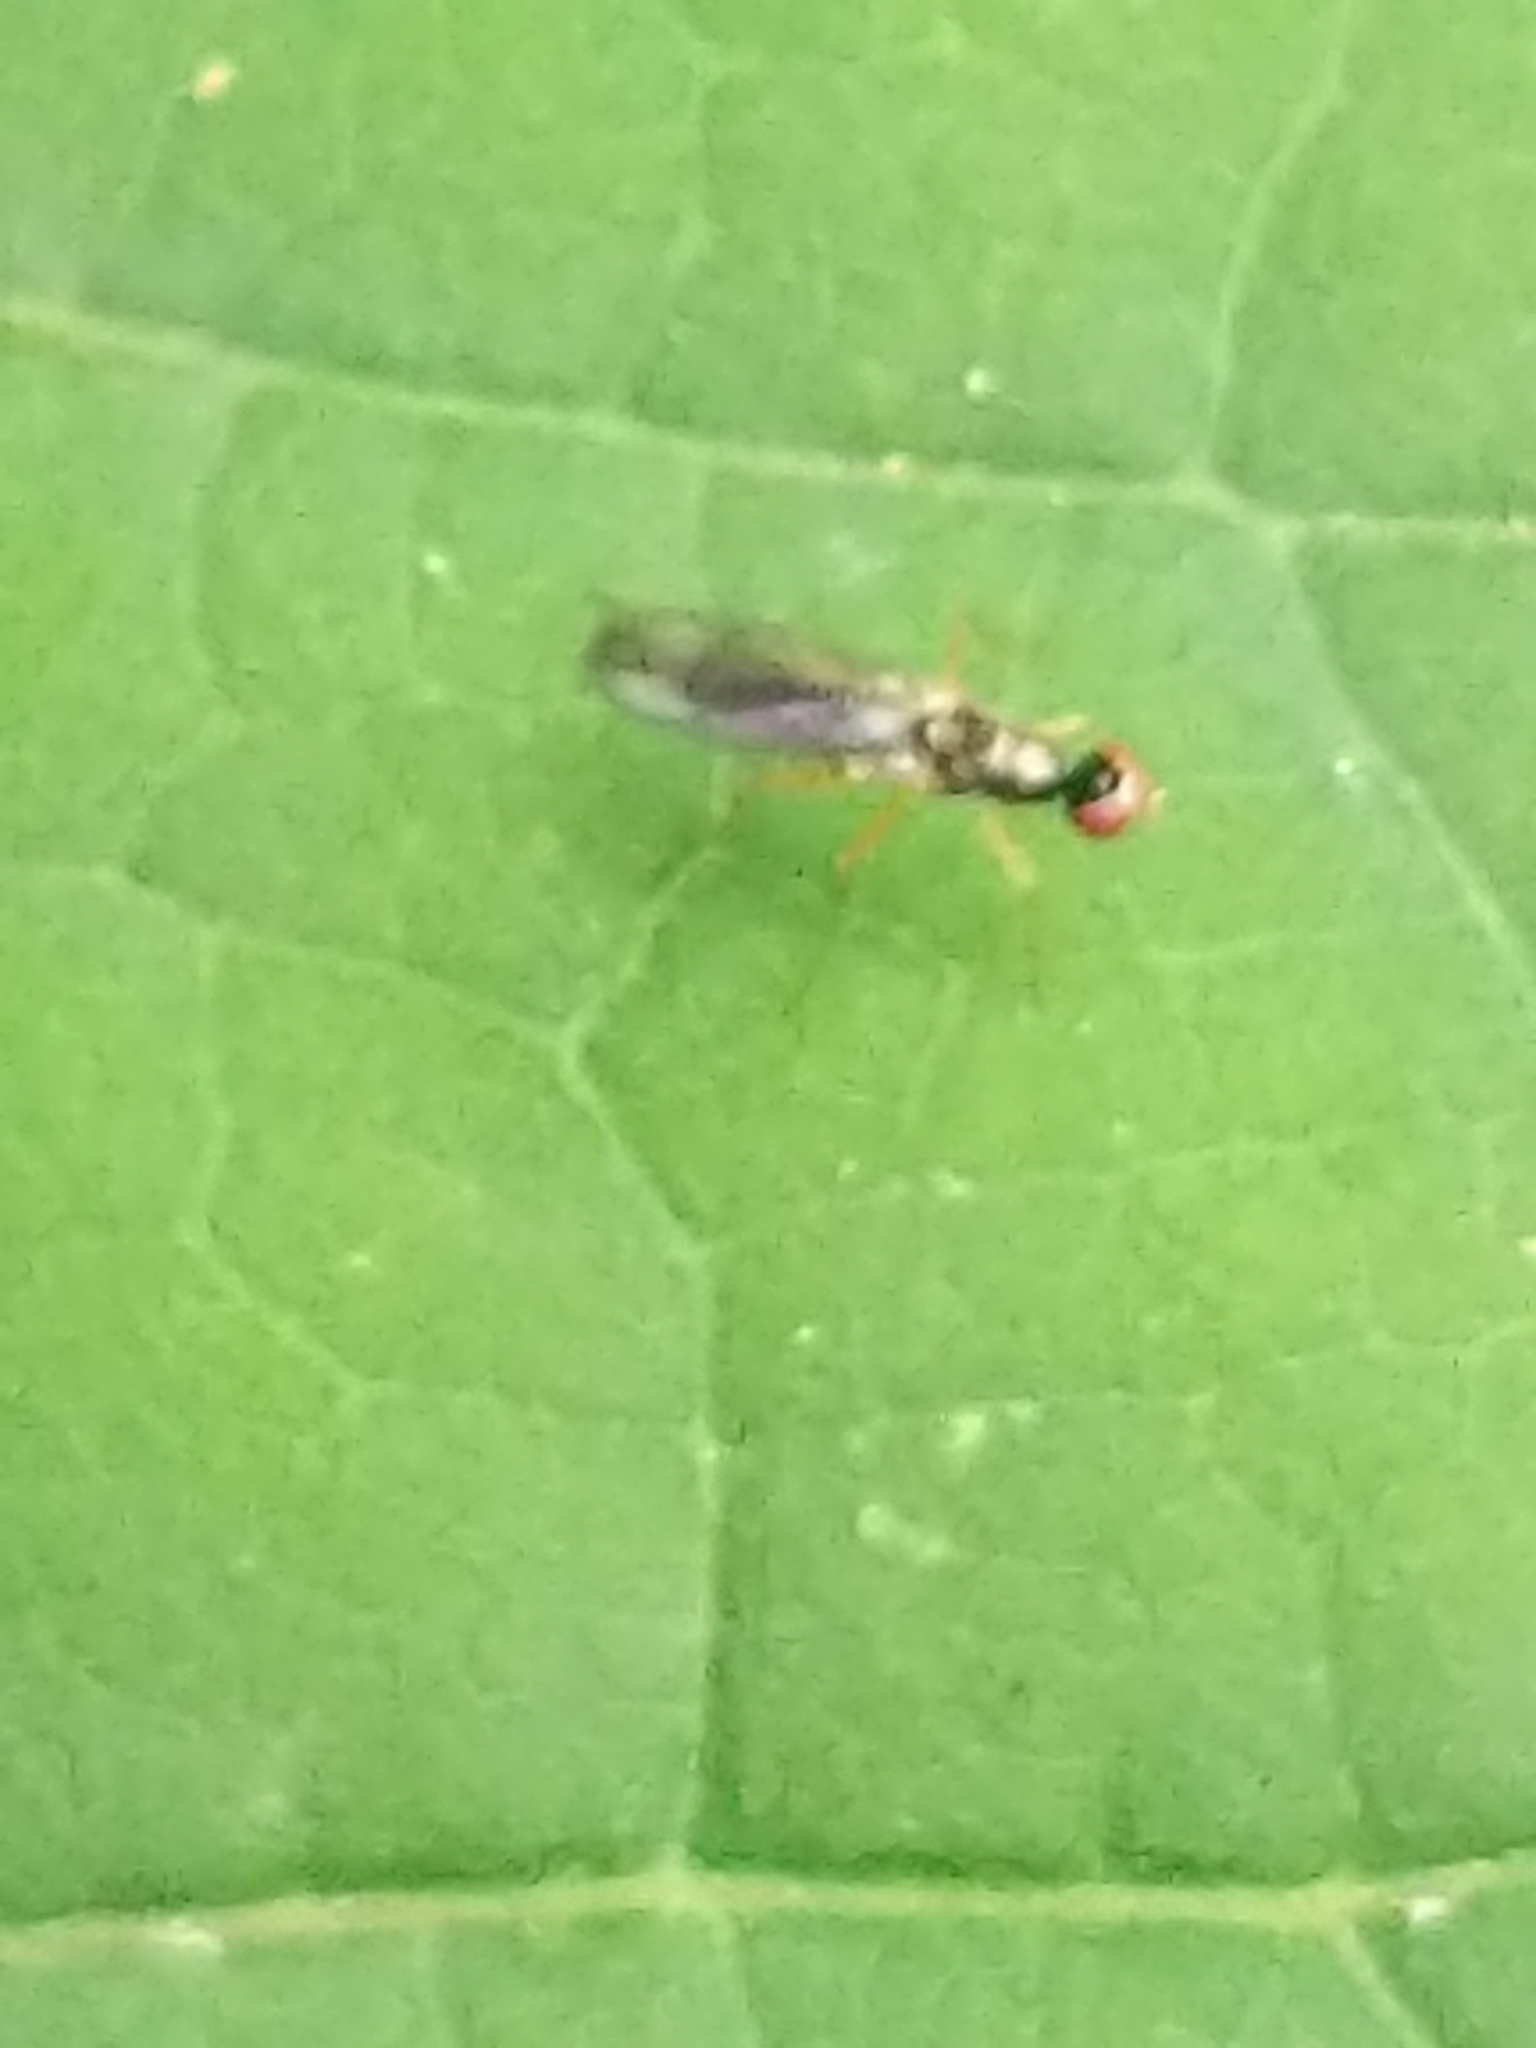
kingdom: Animalia
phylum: Arthropoda
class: Insecta
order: Diptera
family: Strongylophthalmyiidae
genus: Strongylophthalmyia
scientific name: Strongylophthalmyia angustipennis
